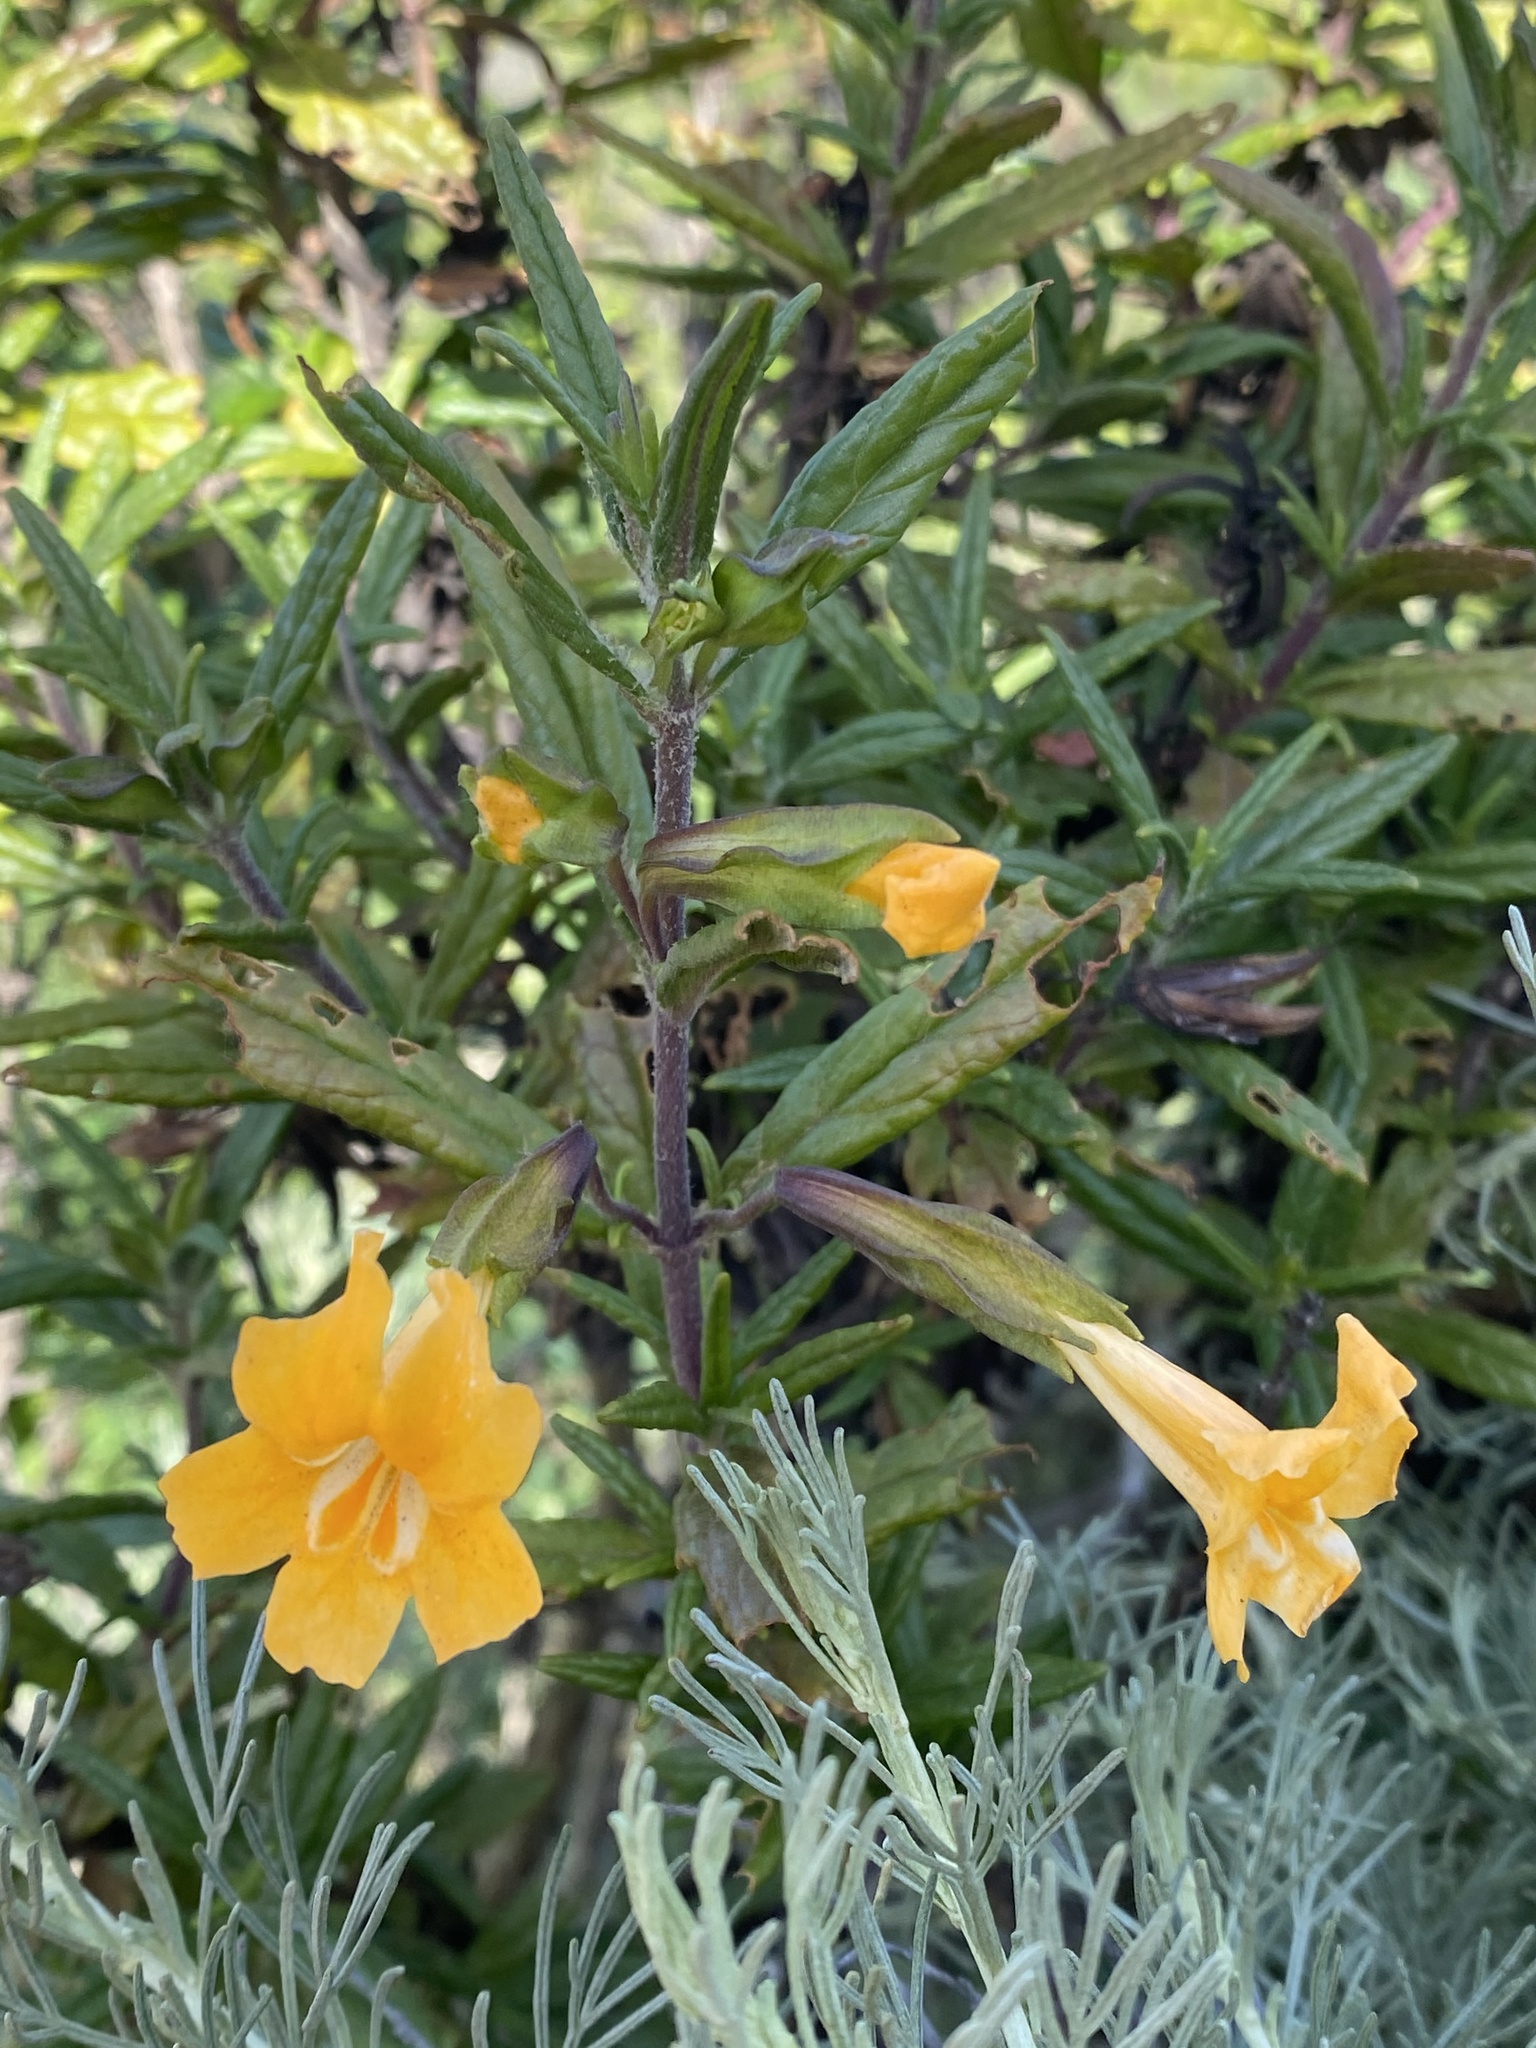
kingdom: Plantae
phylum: Tracheophyta
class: Magnoliopsida
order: Lamiales
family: Phrymaceae
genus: Diplacus
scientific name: Diplacus aurantiacus
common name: Bush monkey-flower
